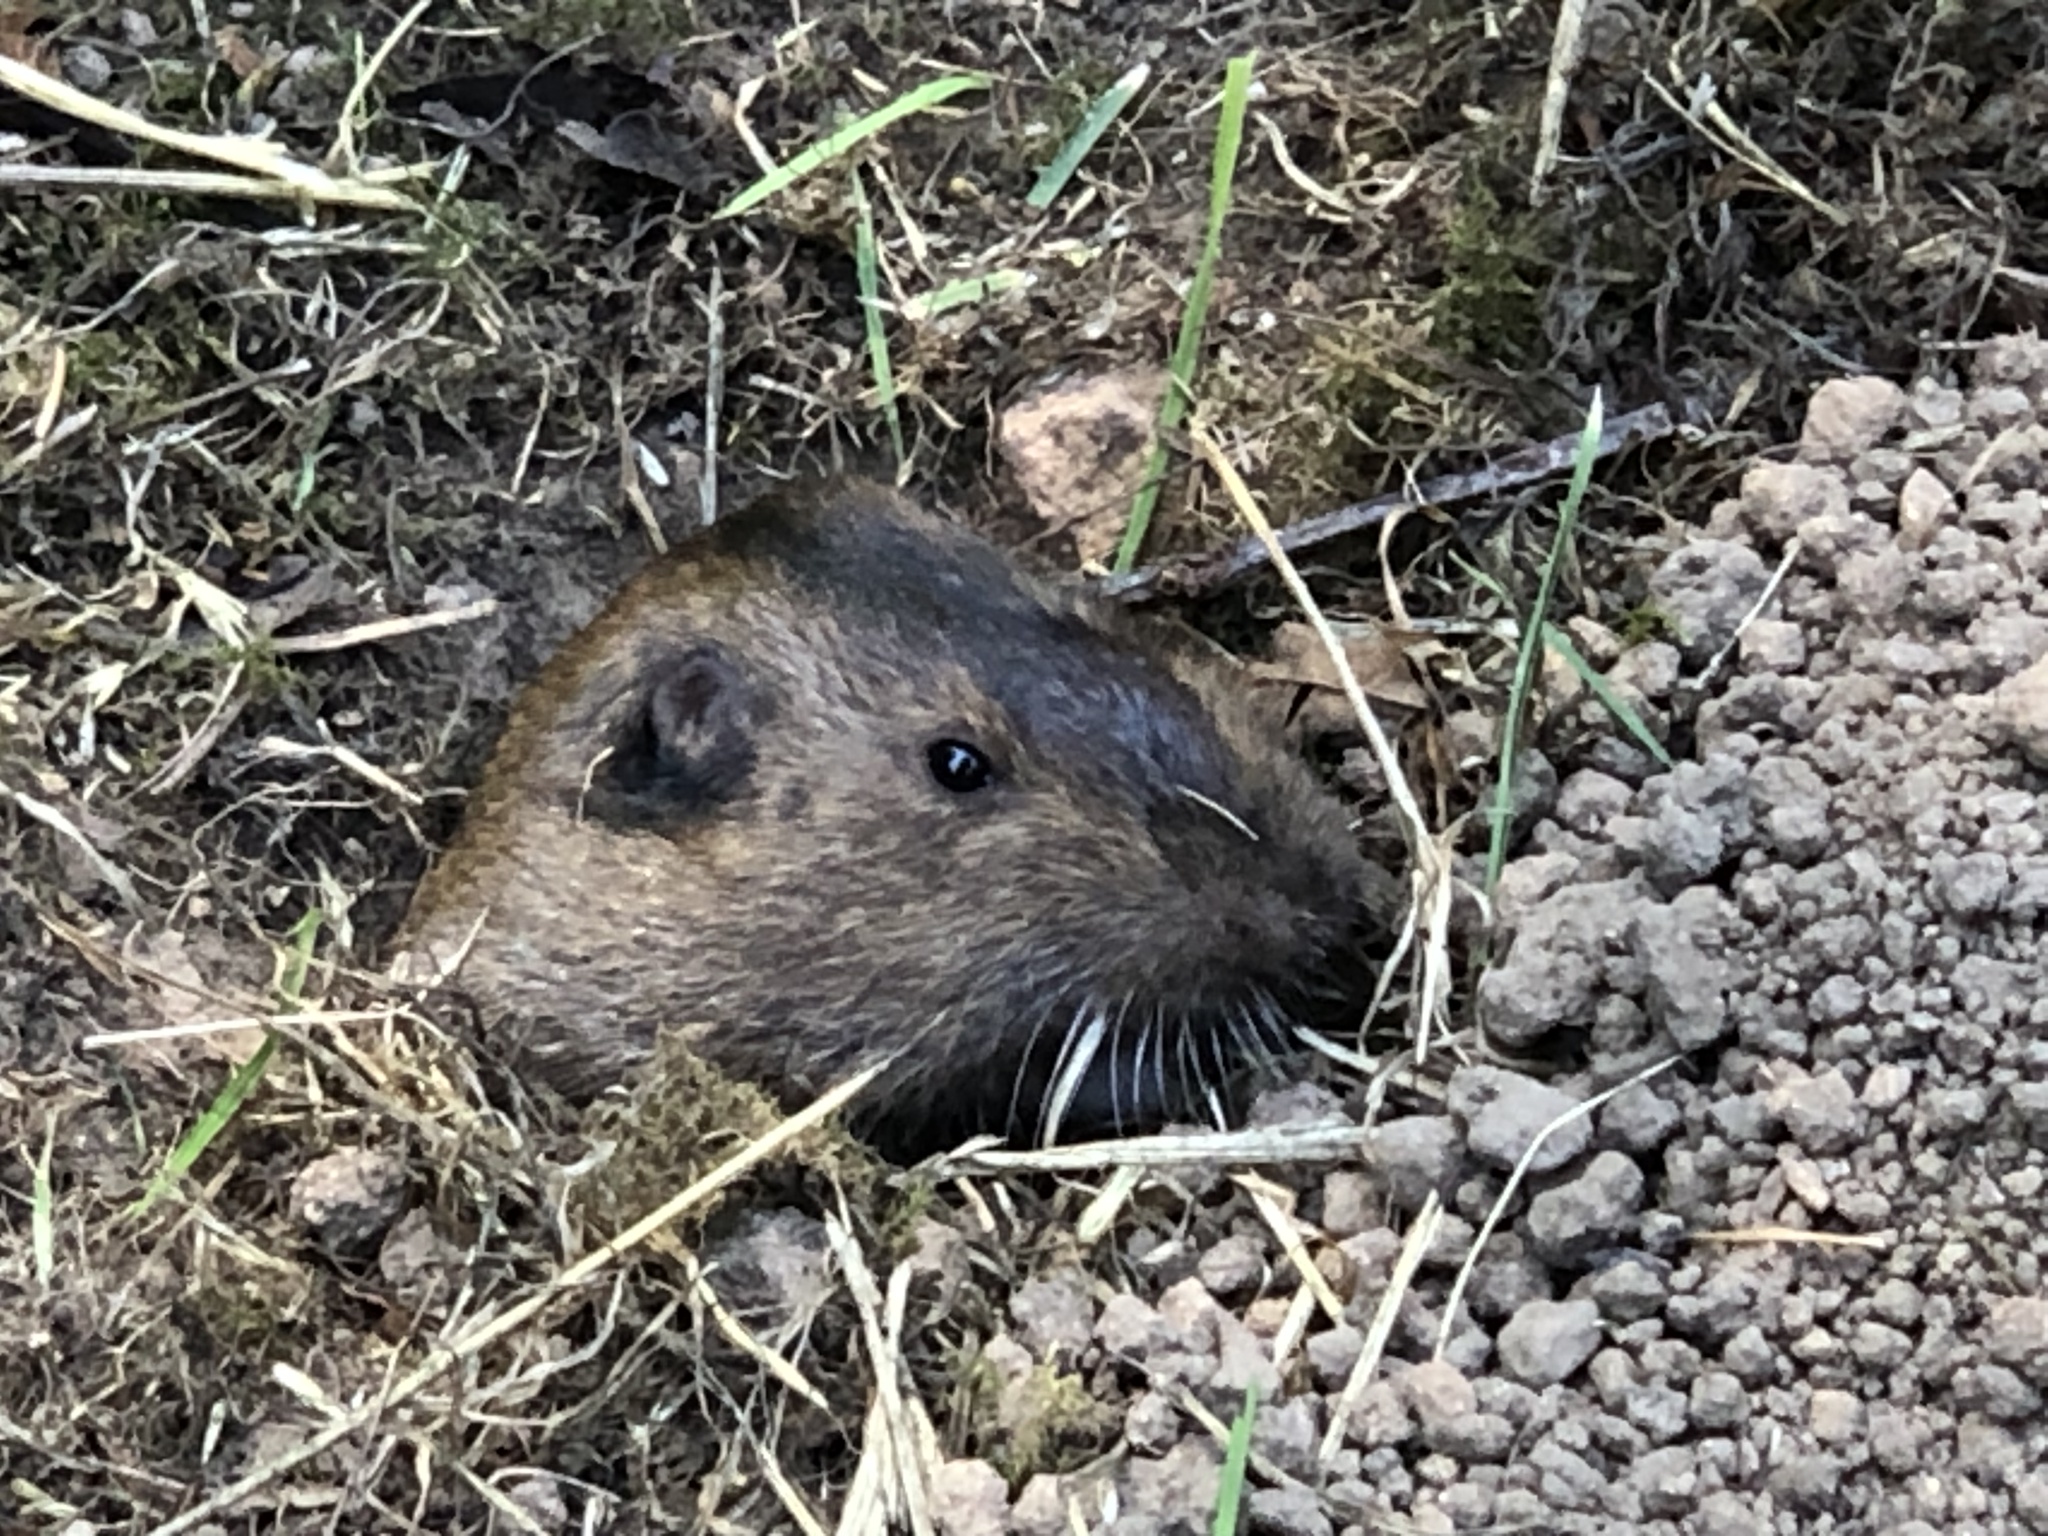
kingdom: Animalia
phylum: Chordata
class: Mammalia
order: Rodentia
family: Geomyidae
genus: Thomomys
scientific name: Thomomys bottae
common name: Botta's pocket gopher
